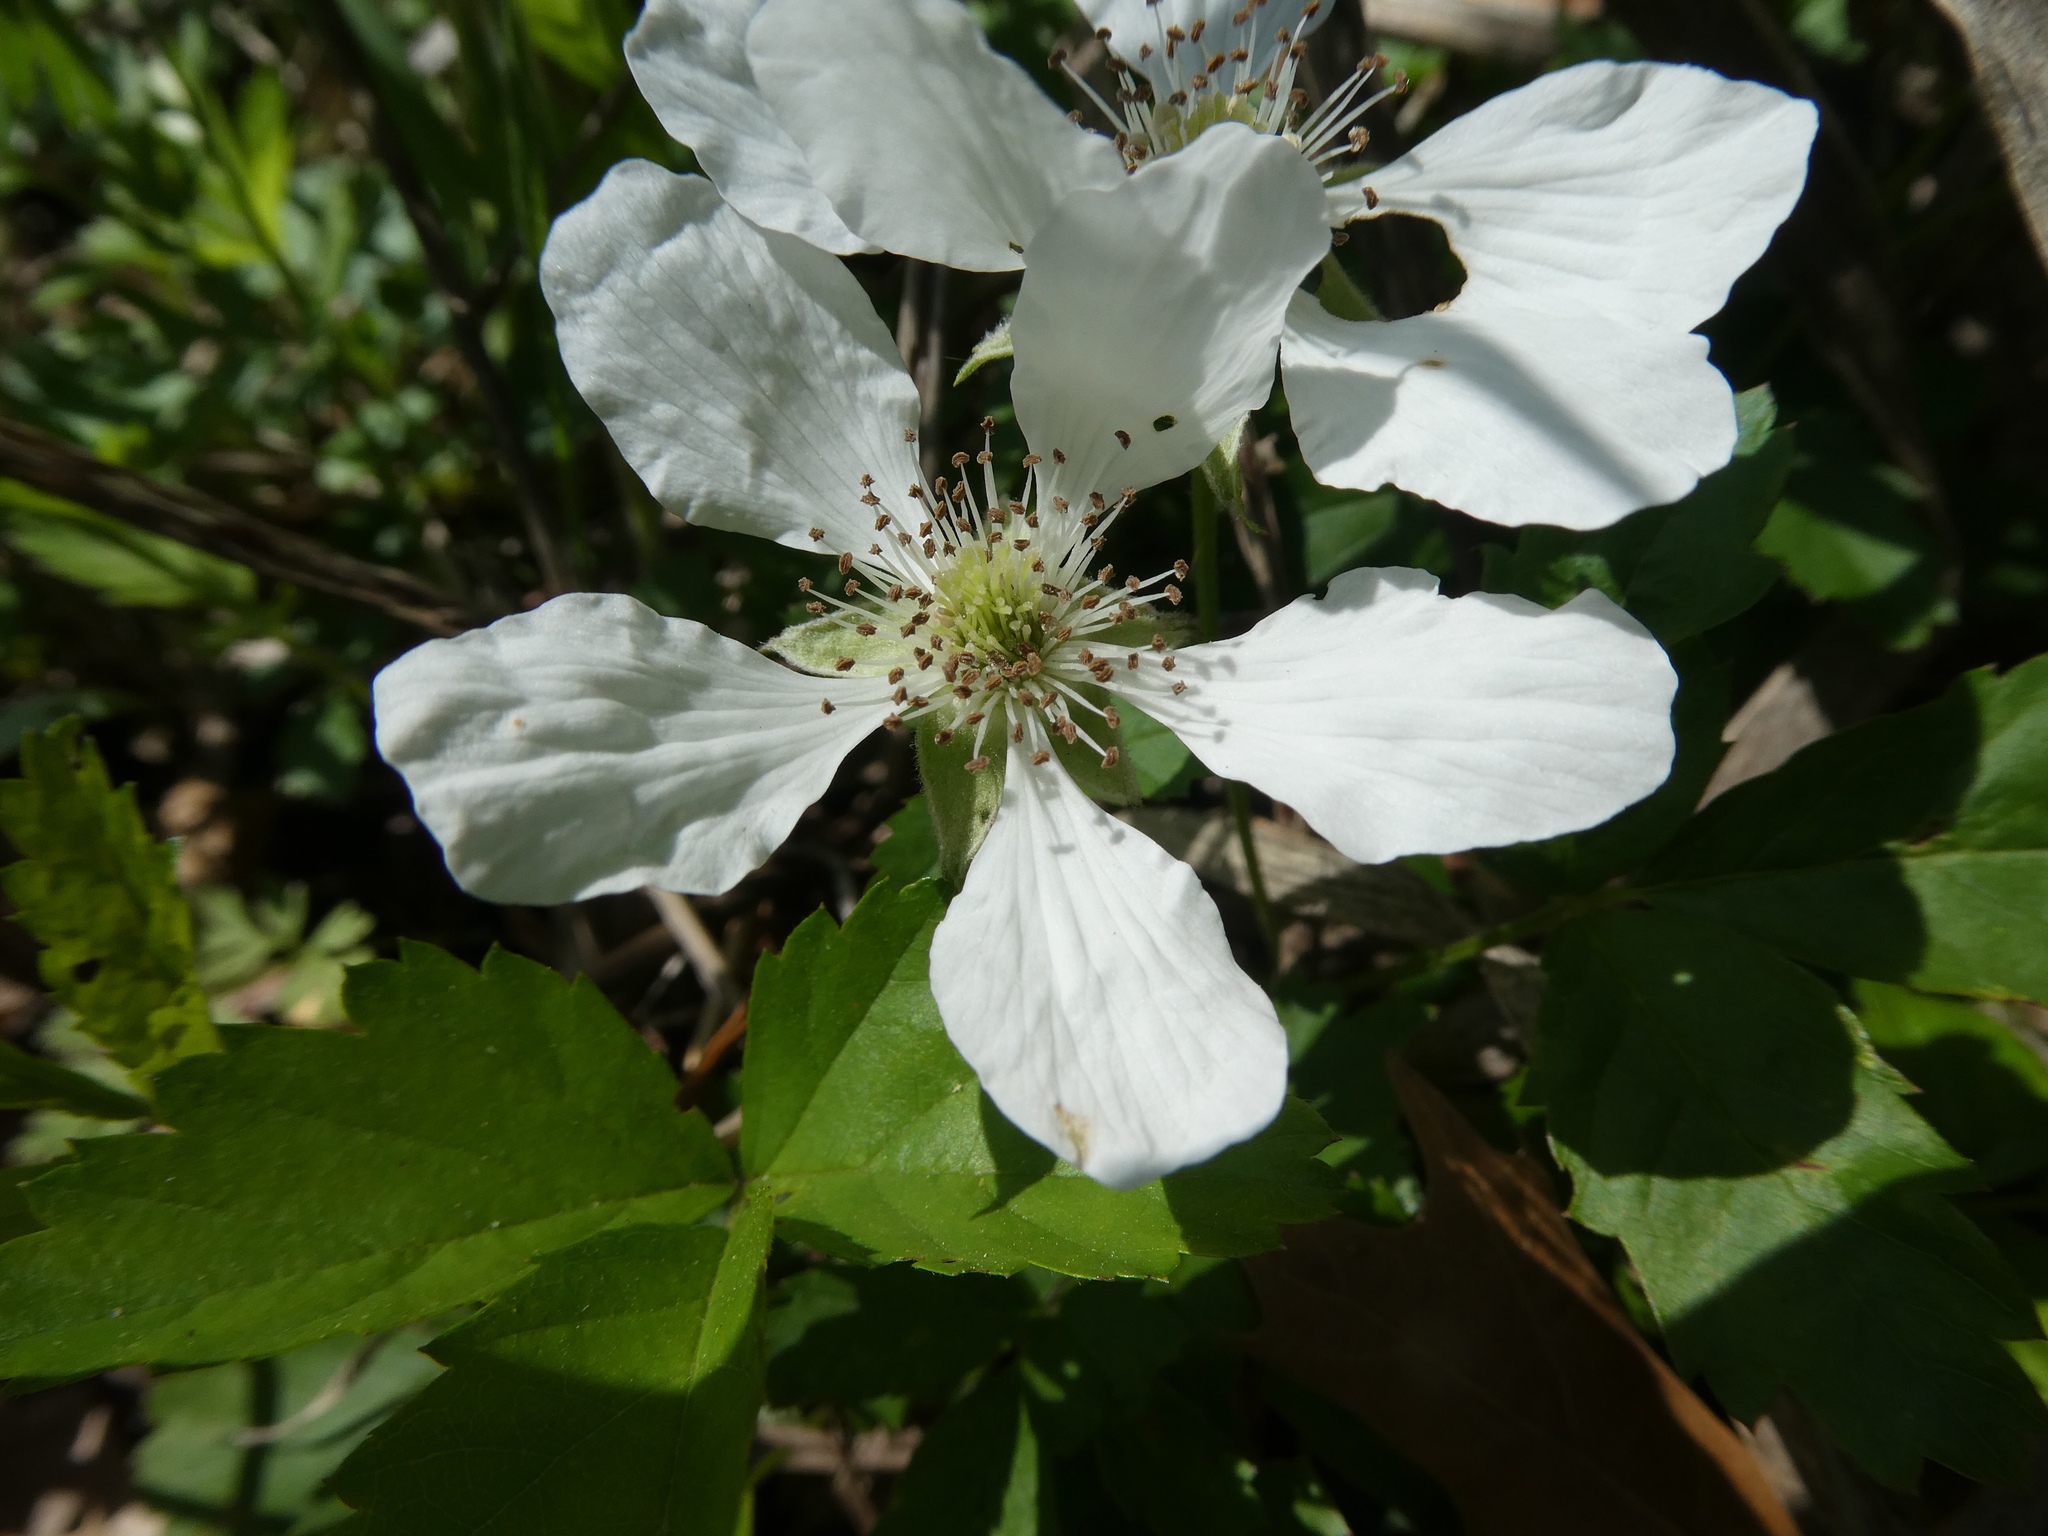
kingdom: Plantae
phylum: Tracheophyta
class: Magnoliopsida
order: Rosales
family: Rosaceae
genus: Rubus
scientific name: Rubus trivialis
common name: Southern dewberry
